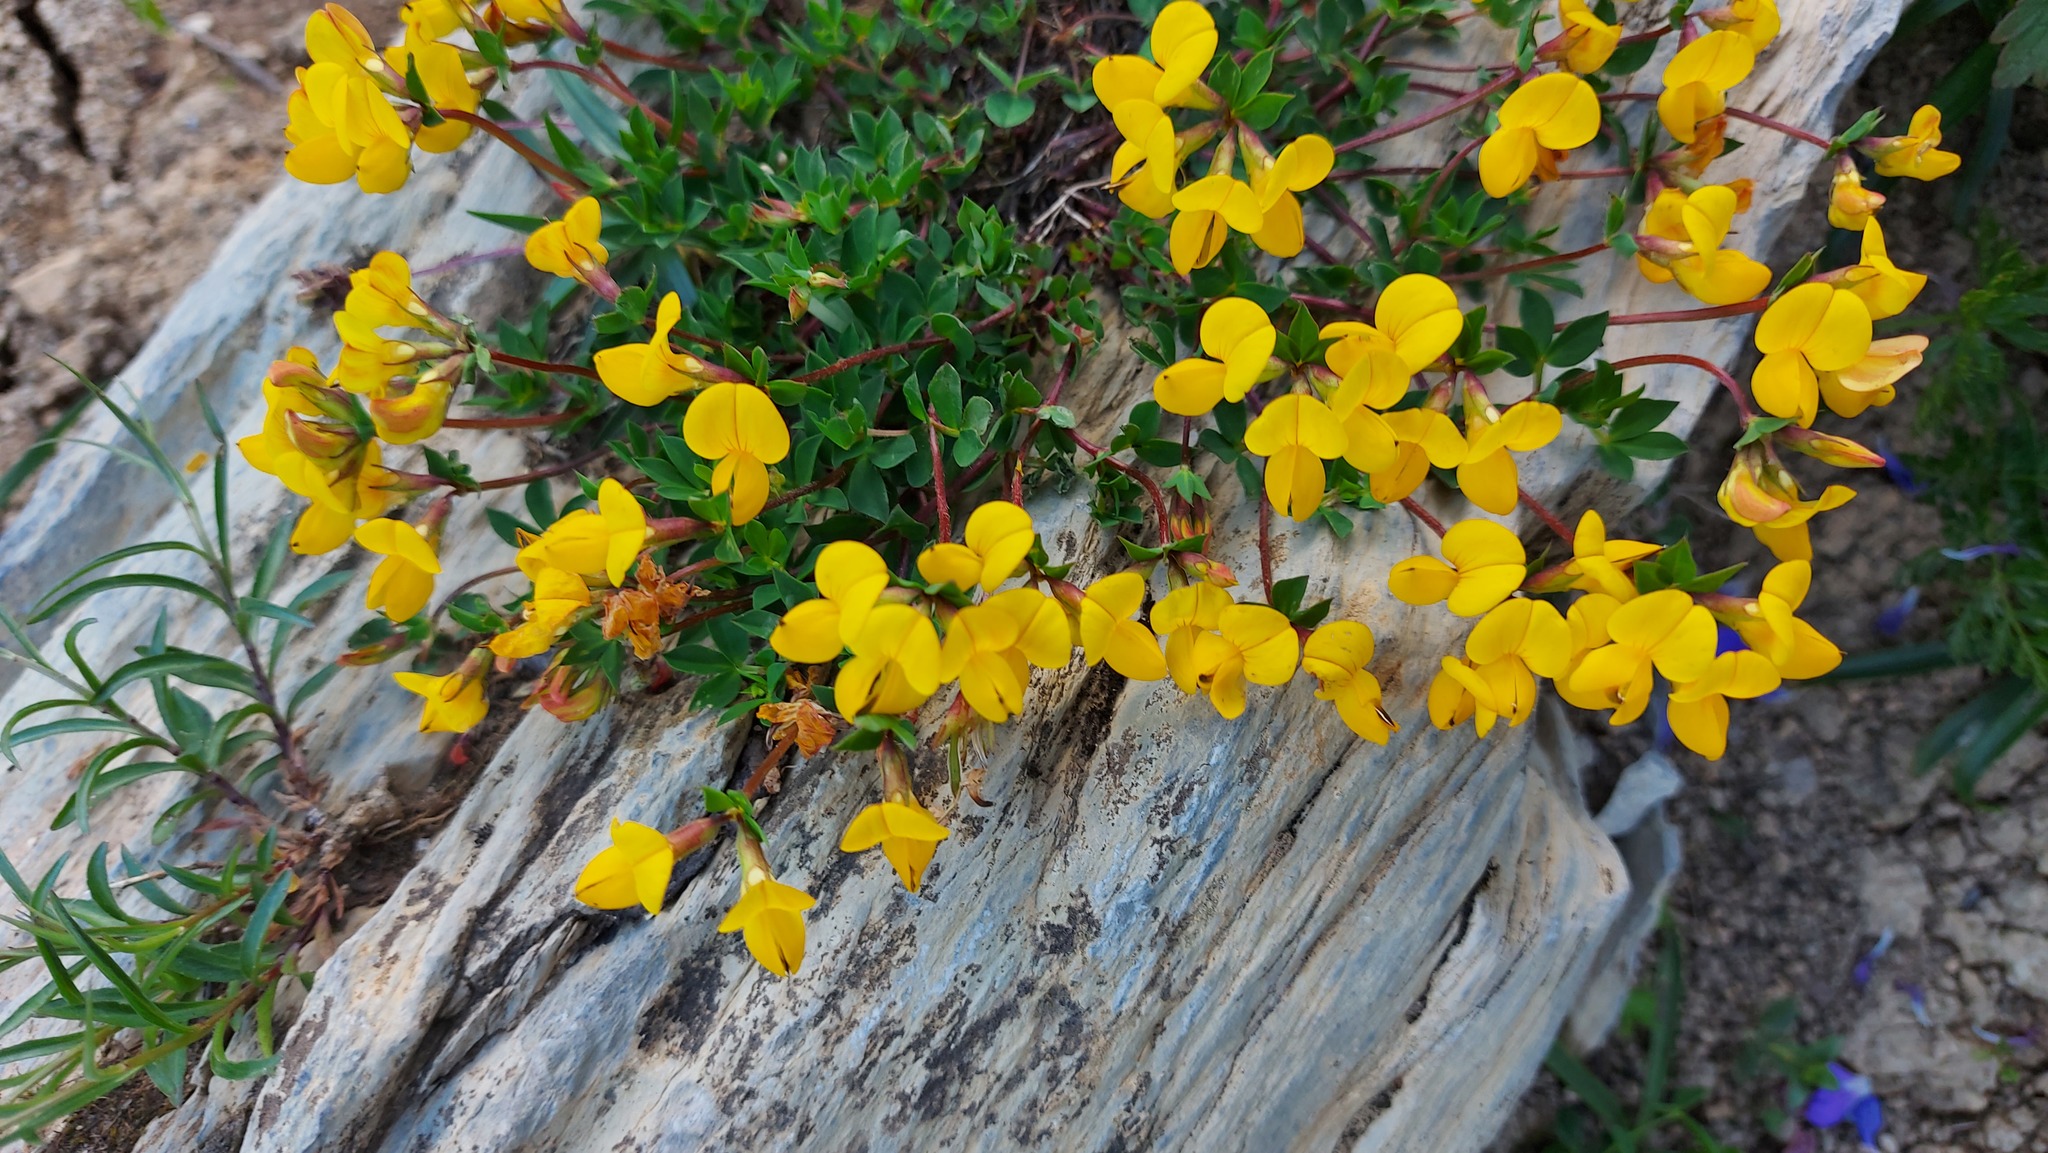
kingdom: Plantae
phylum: Tracheophyta
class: Magnoliopsida
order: Fabales
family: Fabaceae
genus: Lotus
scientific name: Lotus corniculatus
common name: Common bird's-foot-trefoil
